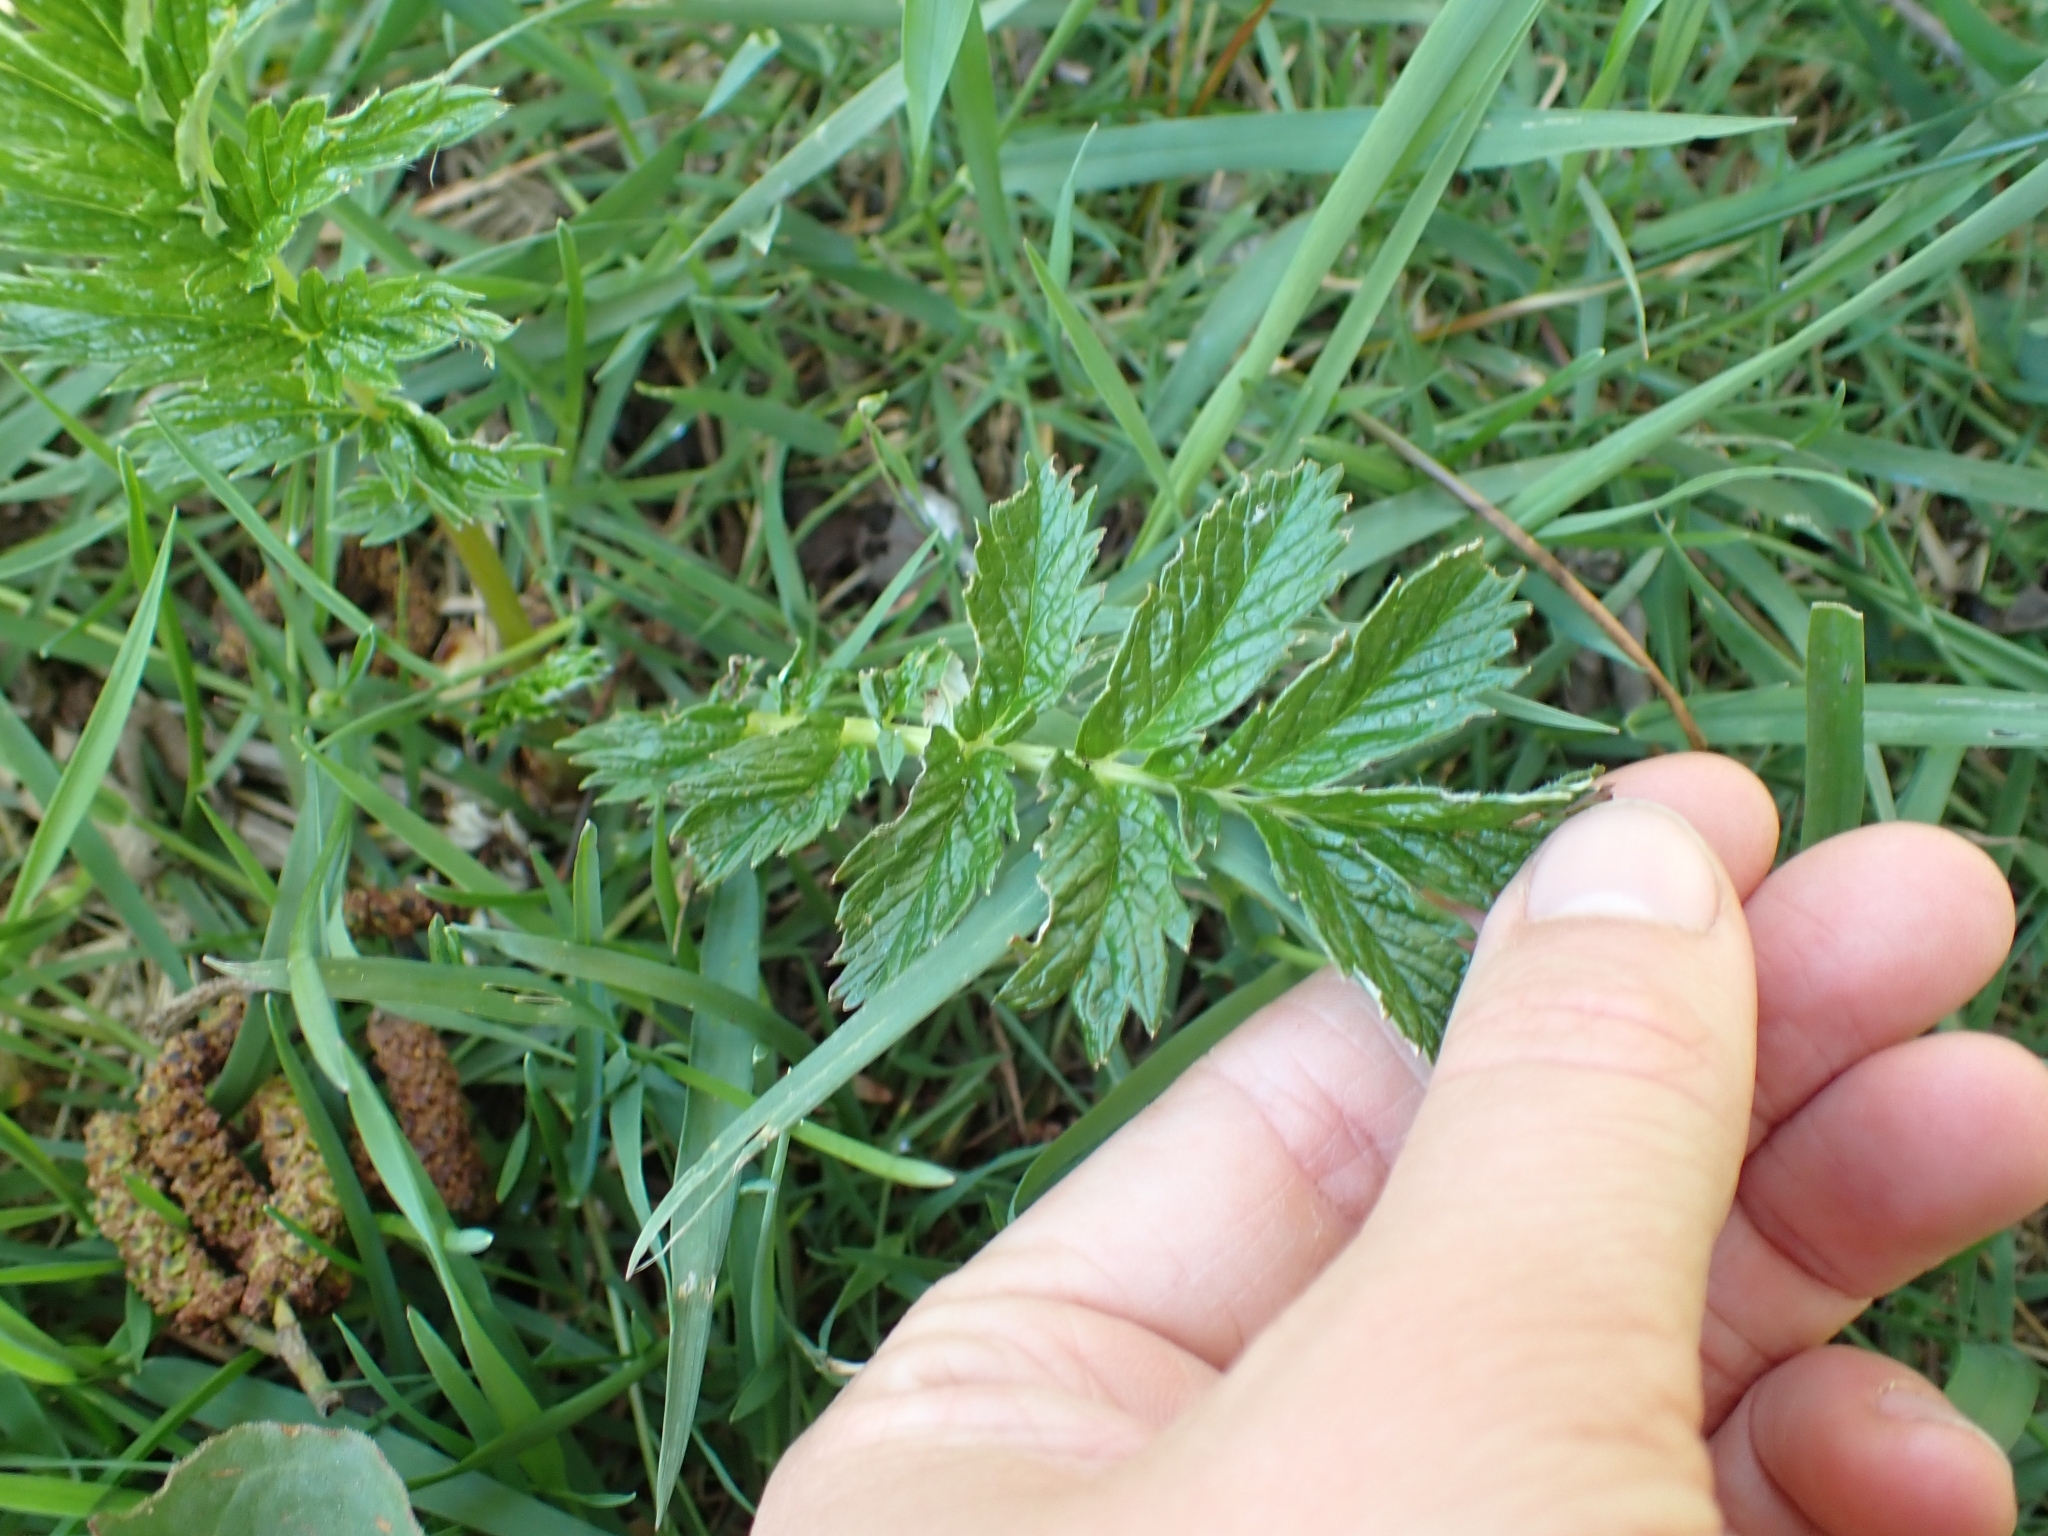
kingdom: Plantae
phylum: Tracheophyta
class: Magnoliopsida
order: Rosales
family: Rosaceae
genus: Argentina
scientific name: Argentina anserina
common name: Common silverweed
